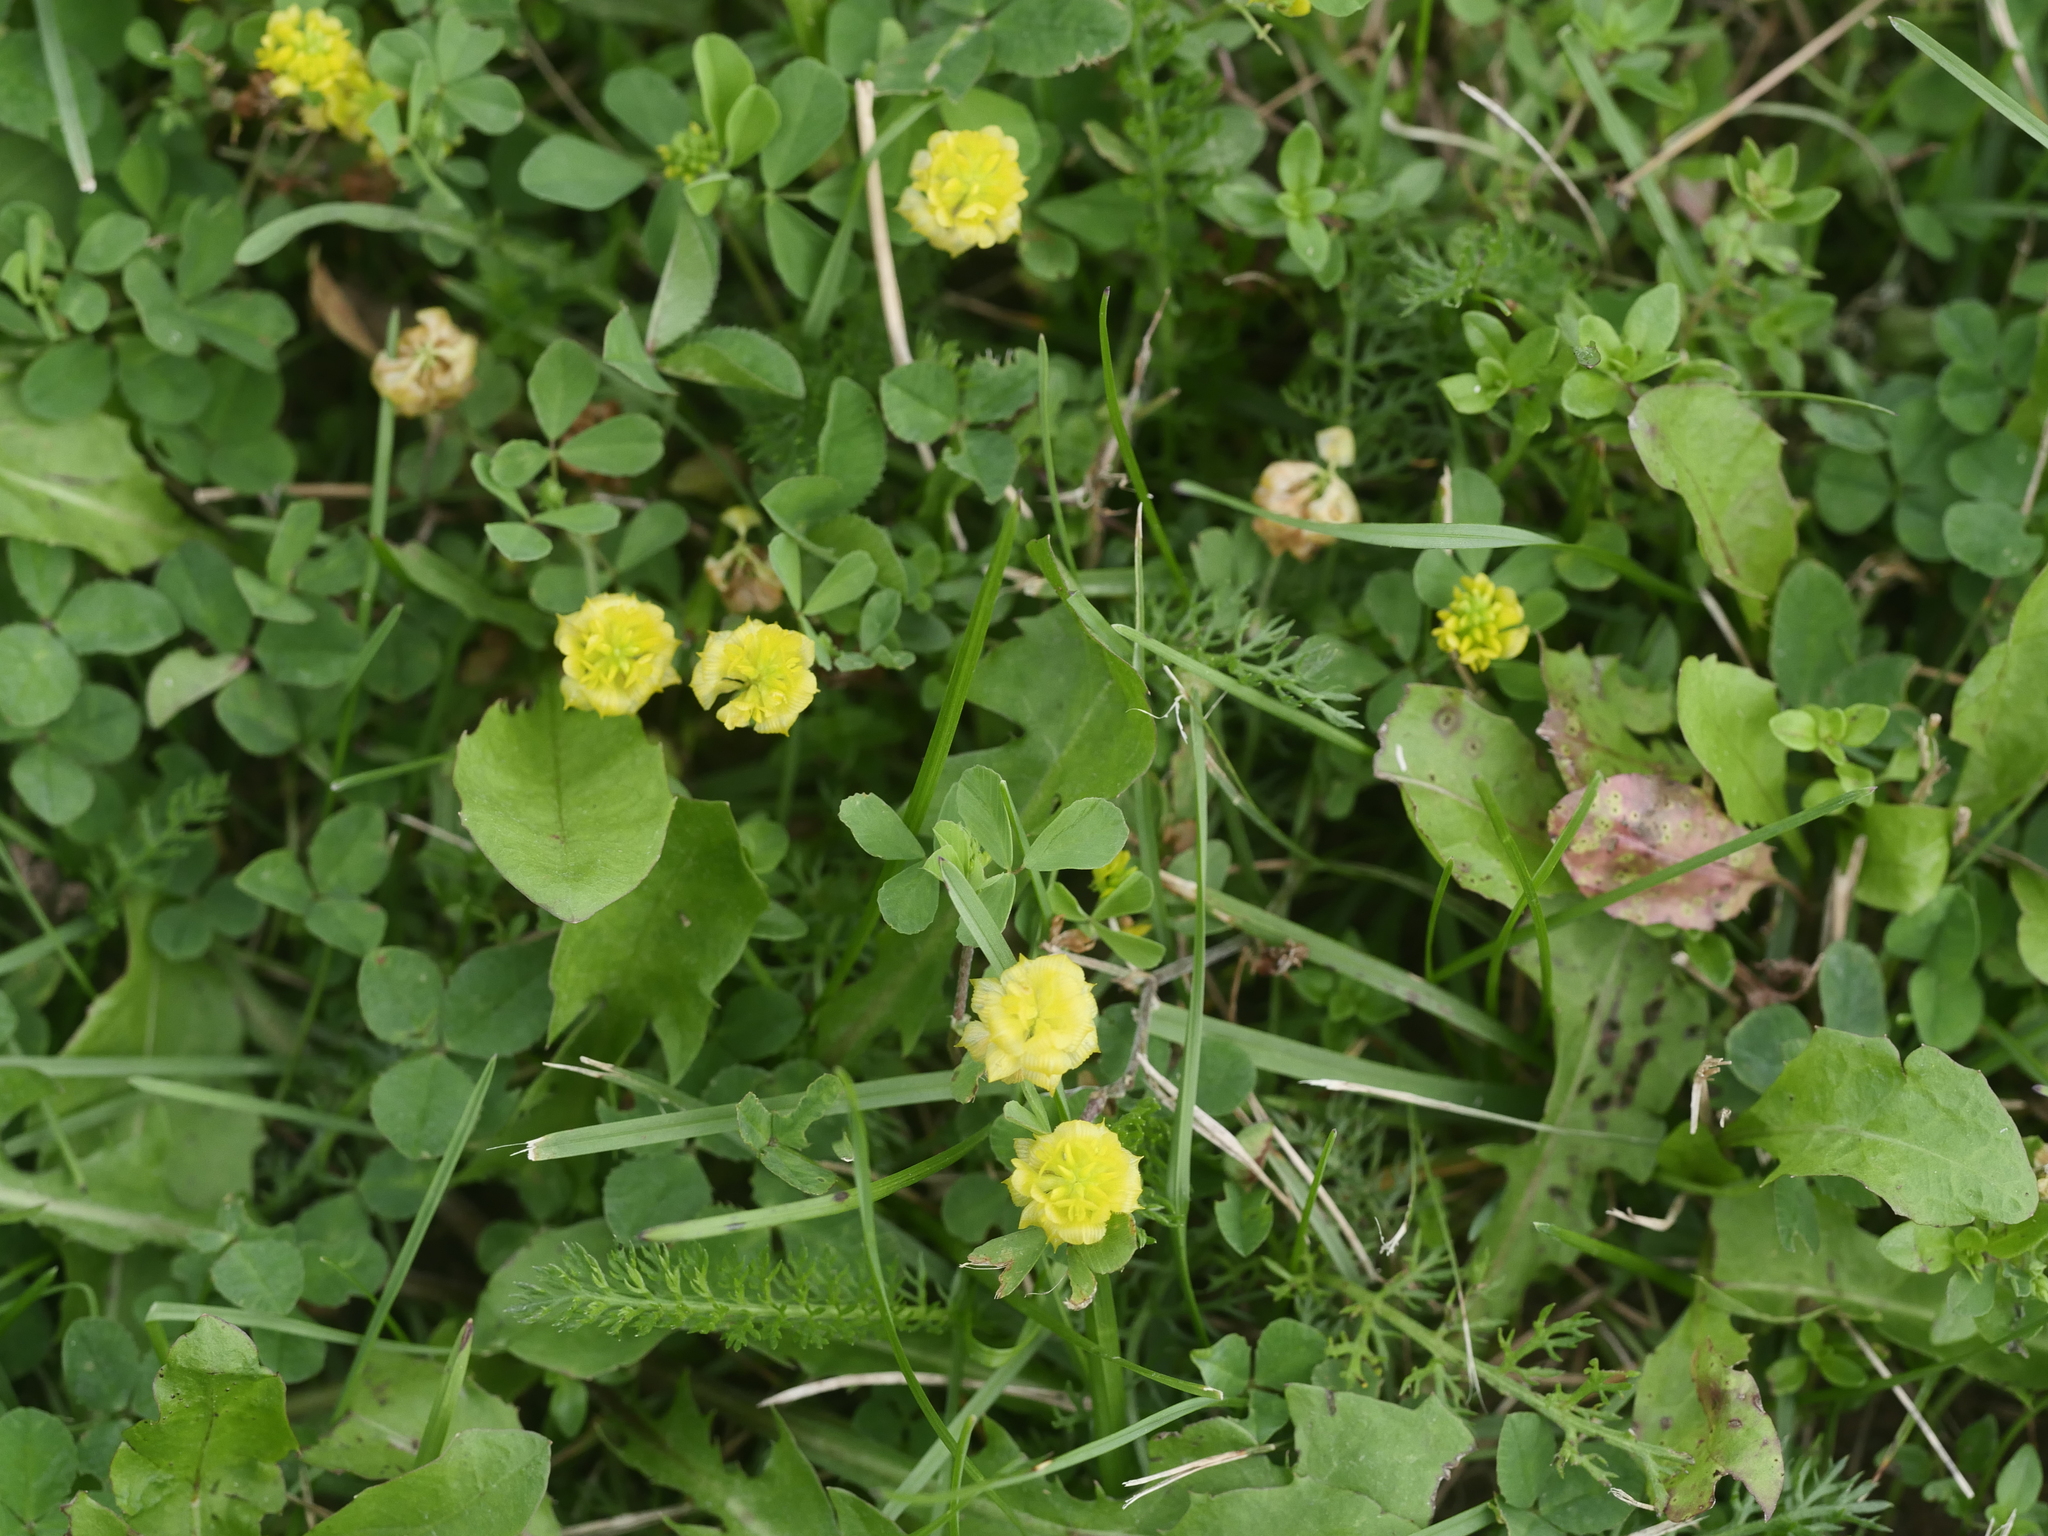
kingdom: Plantae
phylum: Tracheophyta
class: Magnoliopsida
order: Fabales
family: Fabaceae
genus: Trifolium
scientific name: Trifolium campestre
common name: Field clover
